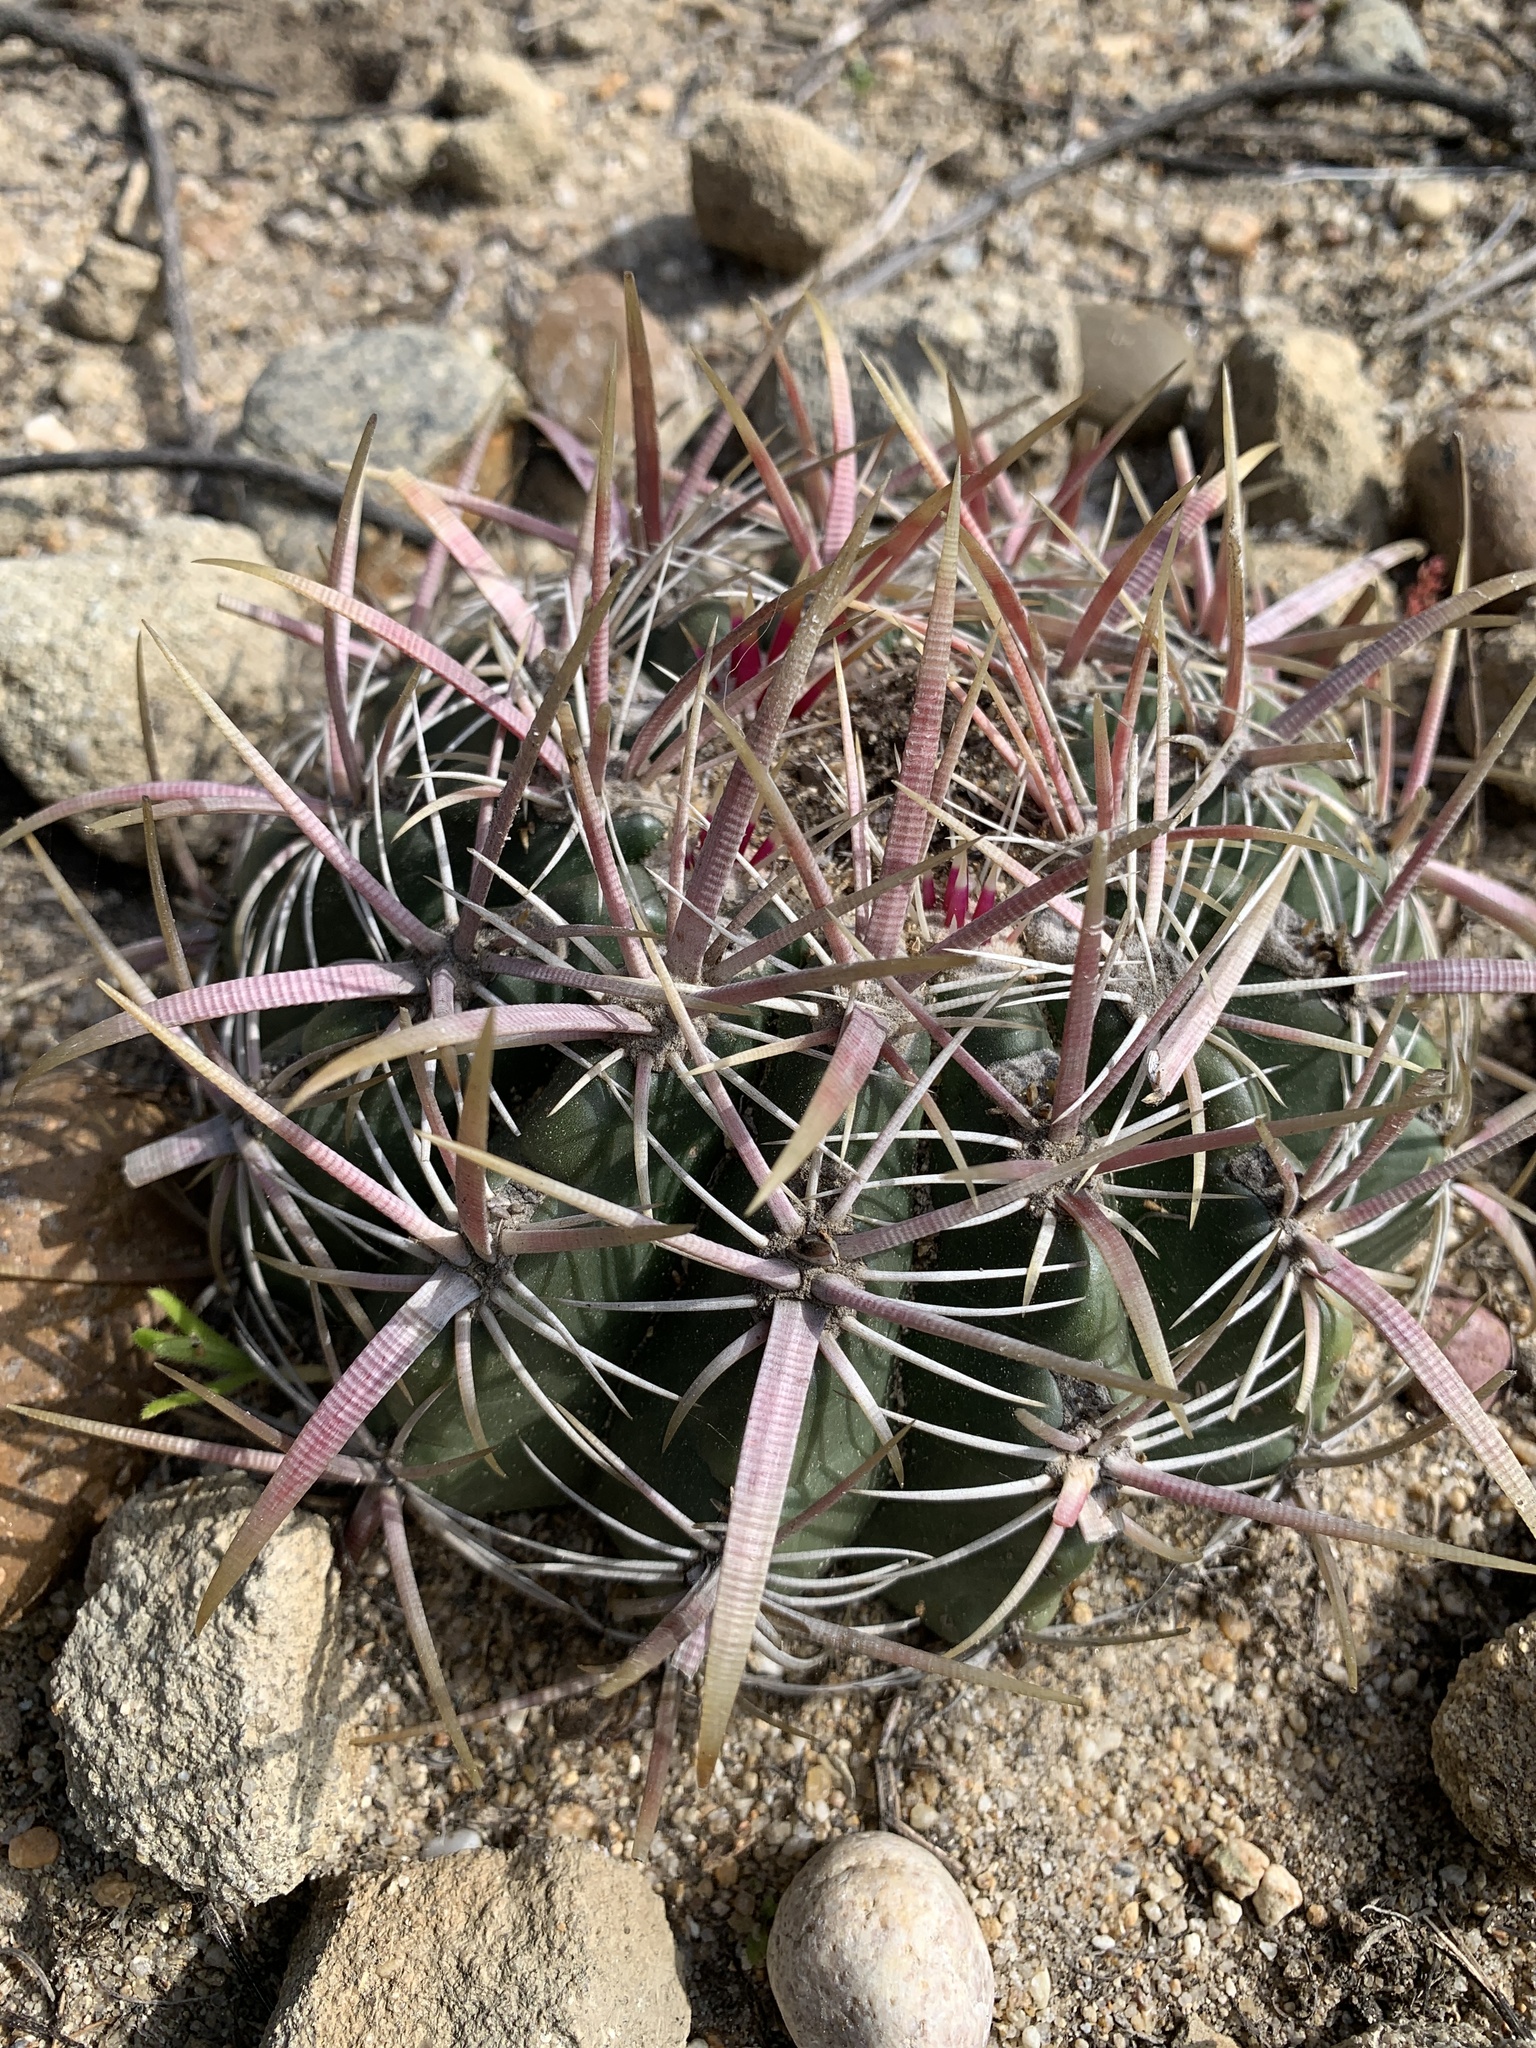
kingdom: Plantae
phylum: Tracheophyta
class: Magnoliopsida
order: Caryophyllales
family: Cactaceae
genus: Ferocactus
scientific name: Ferocactus viridescens
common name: San diego barrel cactus
